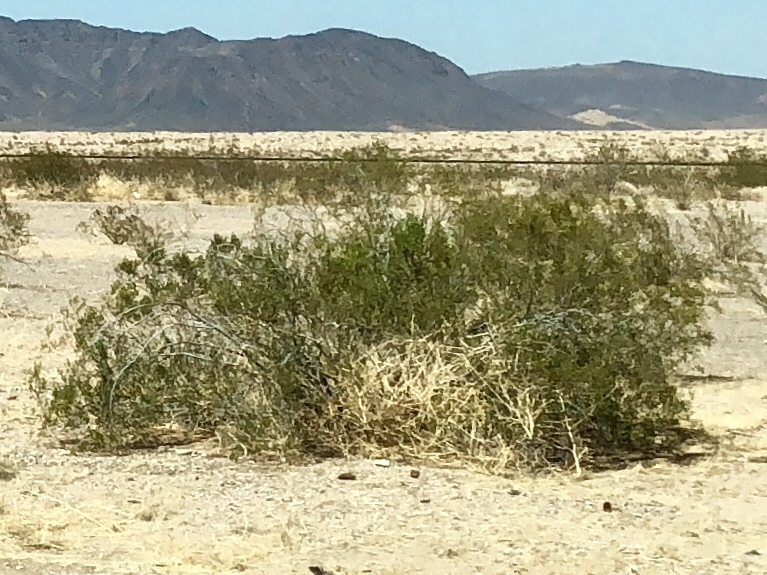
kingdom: Plantae
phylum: Tracheophyta
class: Magnoliopsida
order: Zygophyllales
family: Zygophyllaceae
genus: Larrea
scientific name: Larrea tridentata
